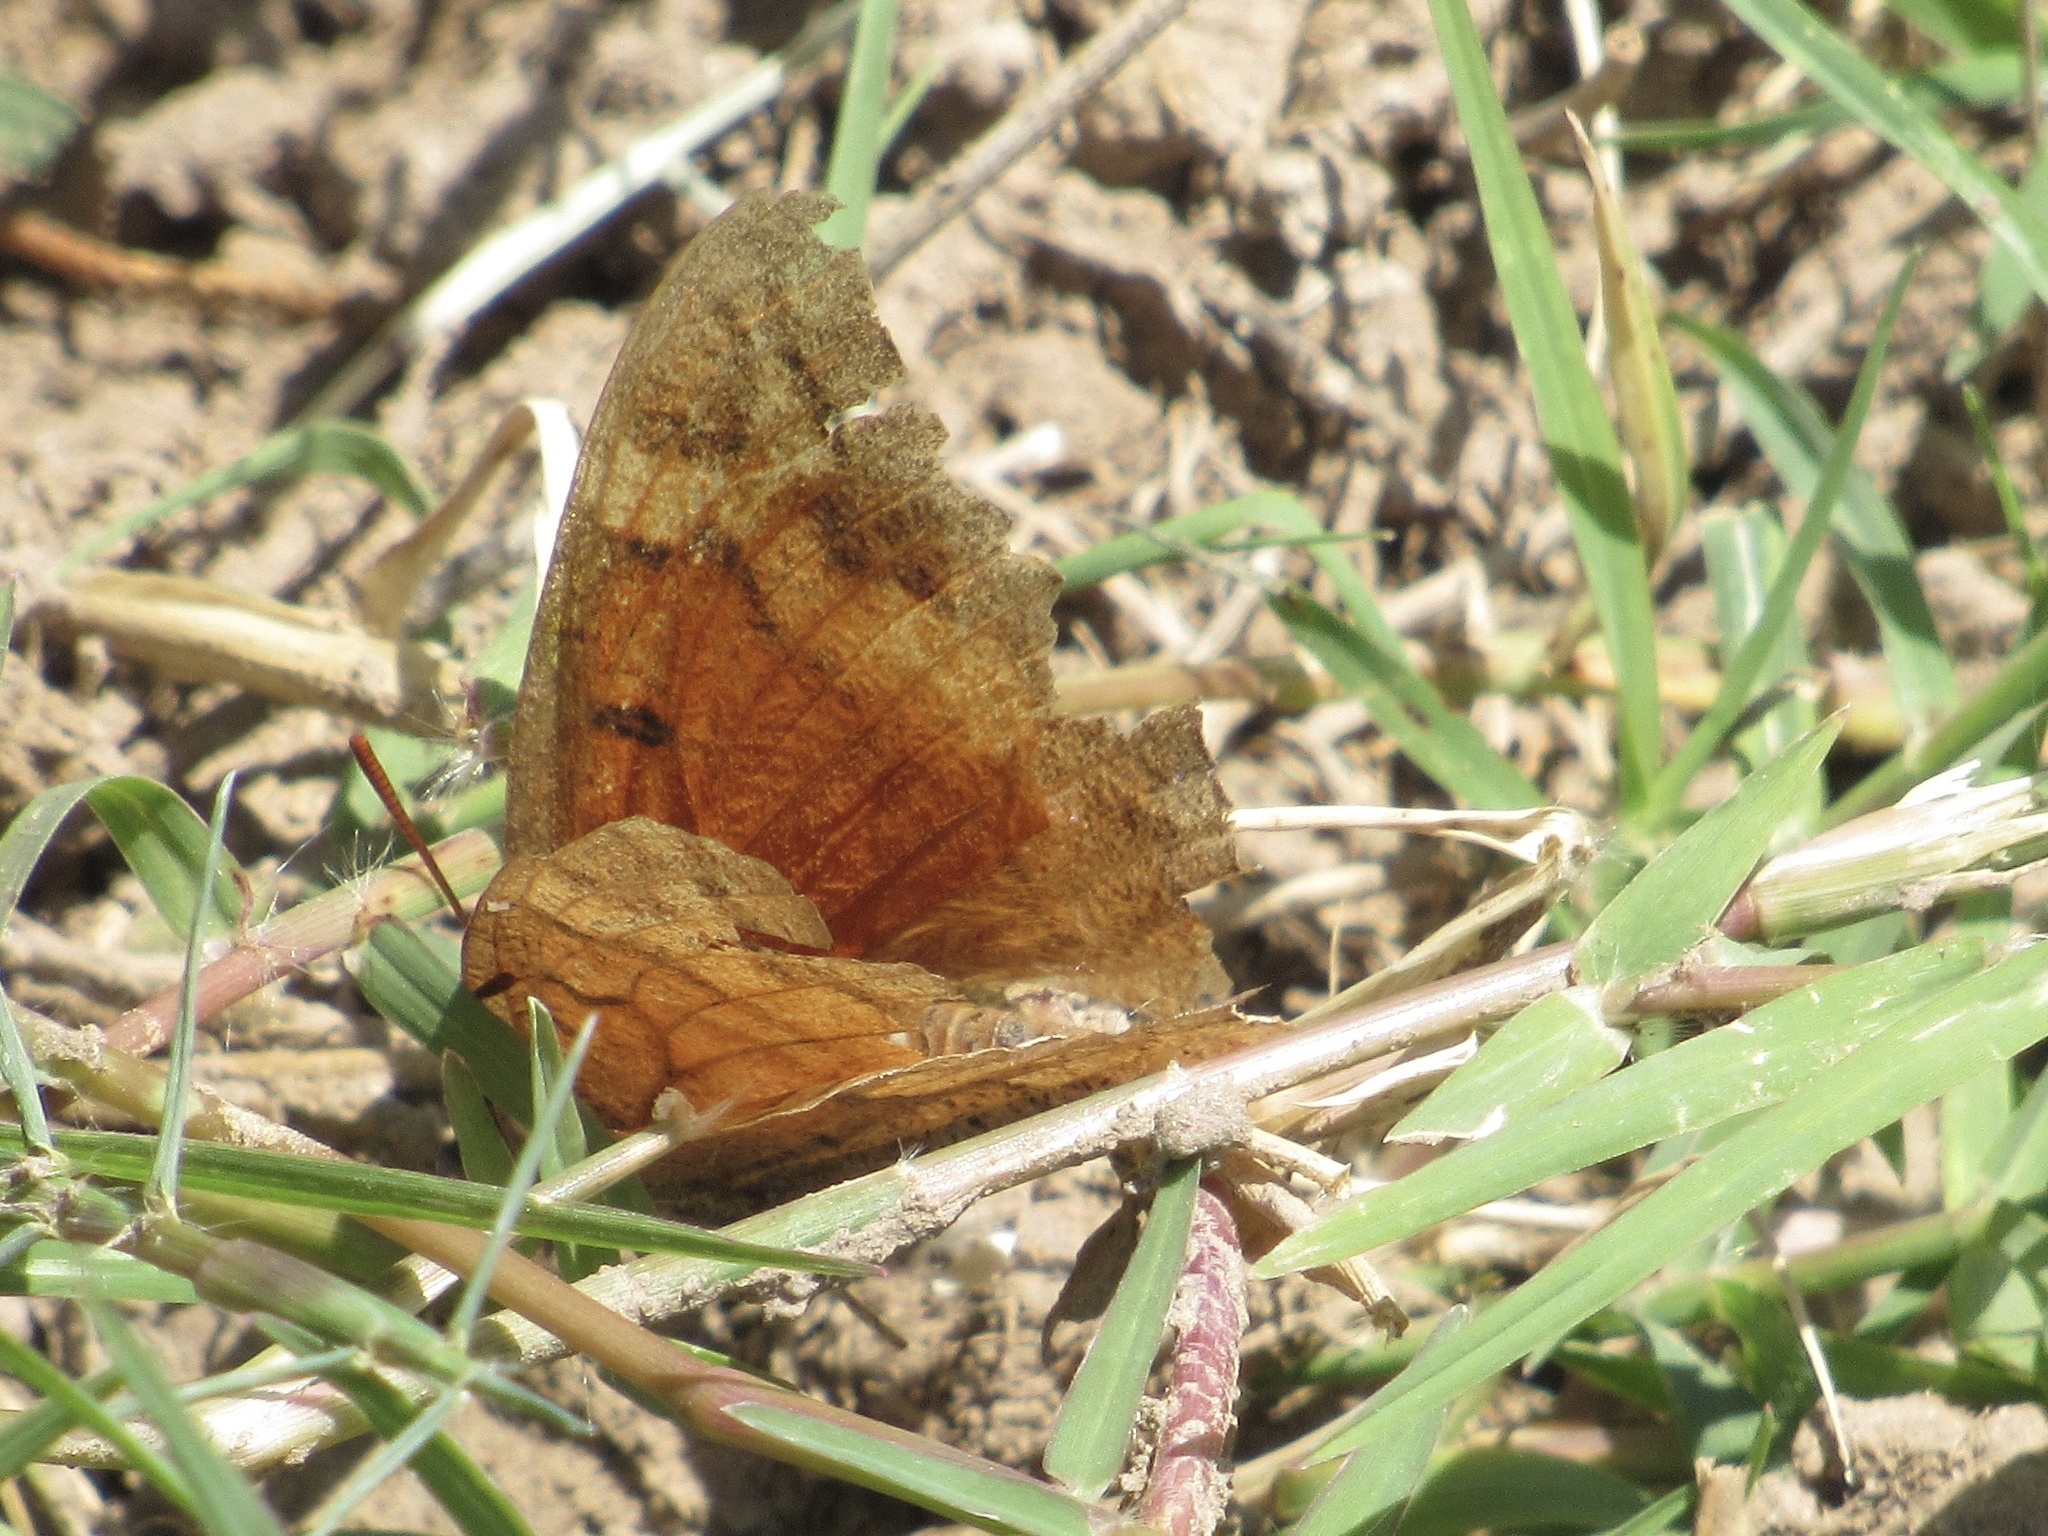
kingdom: Animalia
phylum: Arthropoda
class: Insecta
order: Lepidoptera
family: Nymphalidae
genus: Anaea
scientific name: Anaea andria
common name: Goatweed leafwing
